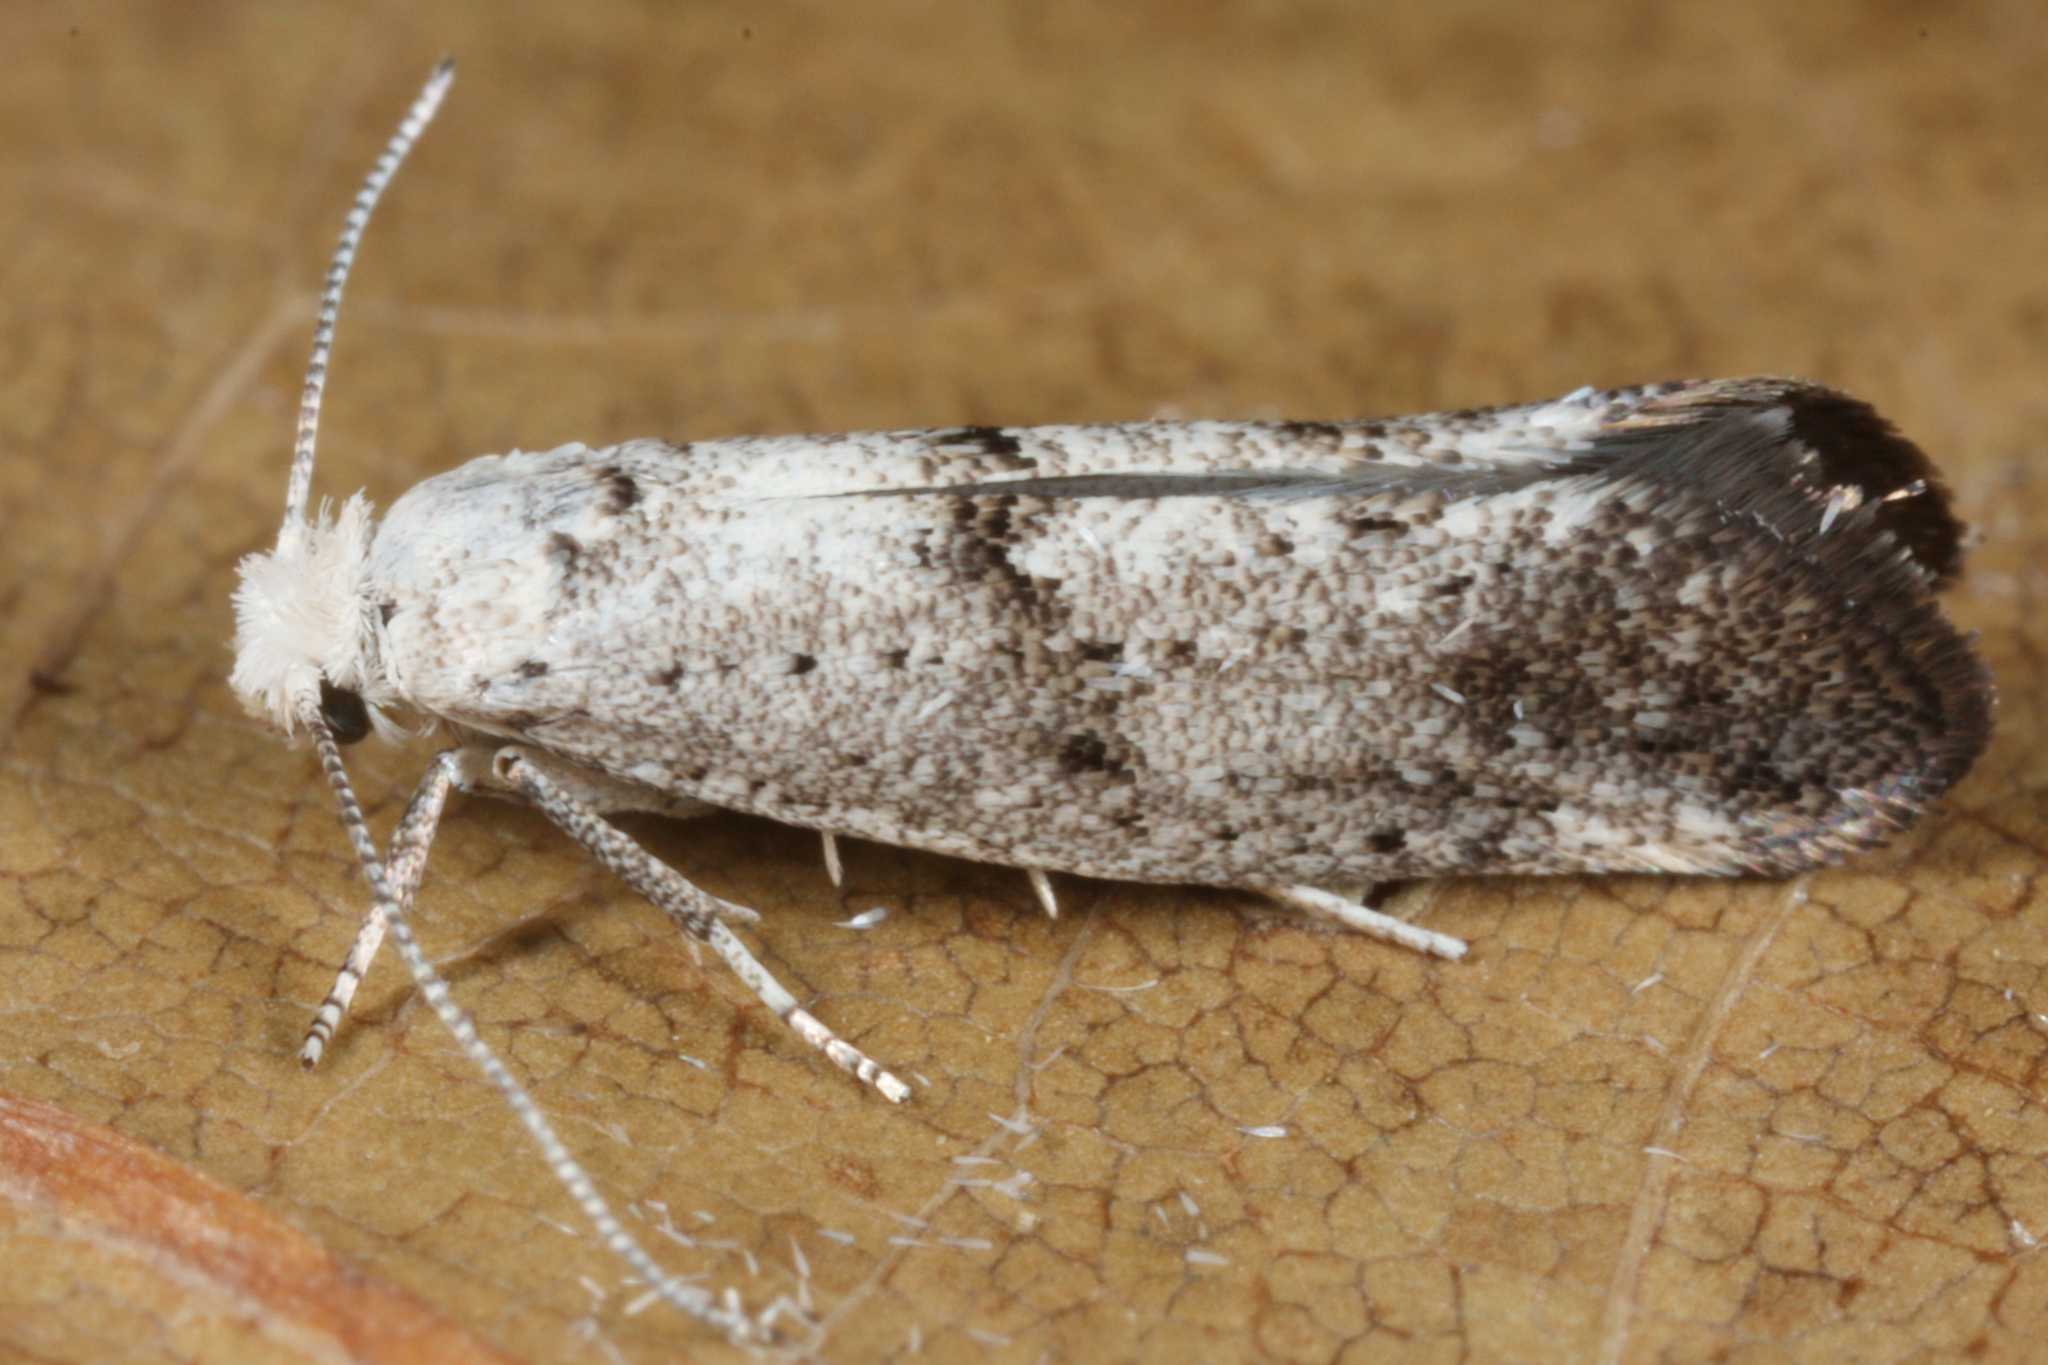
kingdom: Animalia
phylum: Arthropoda
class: Insecta
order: Lepidoptera
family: Yponomeutidae
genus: Swammerdamia
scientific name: Swammerdamia
